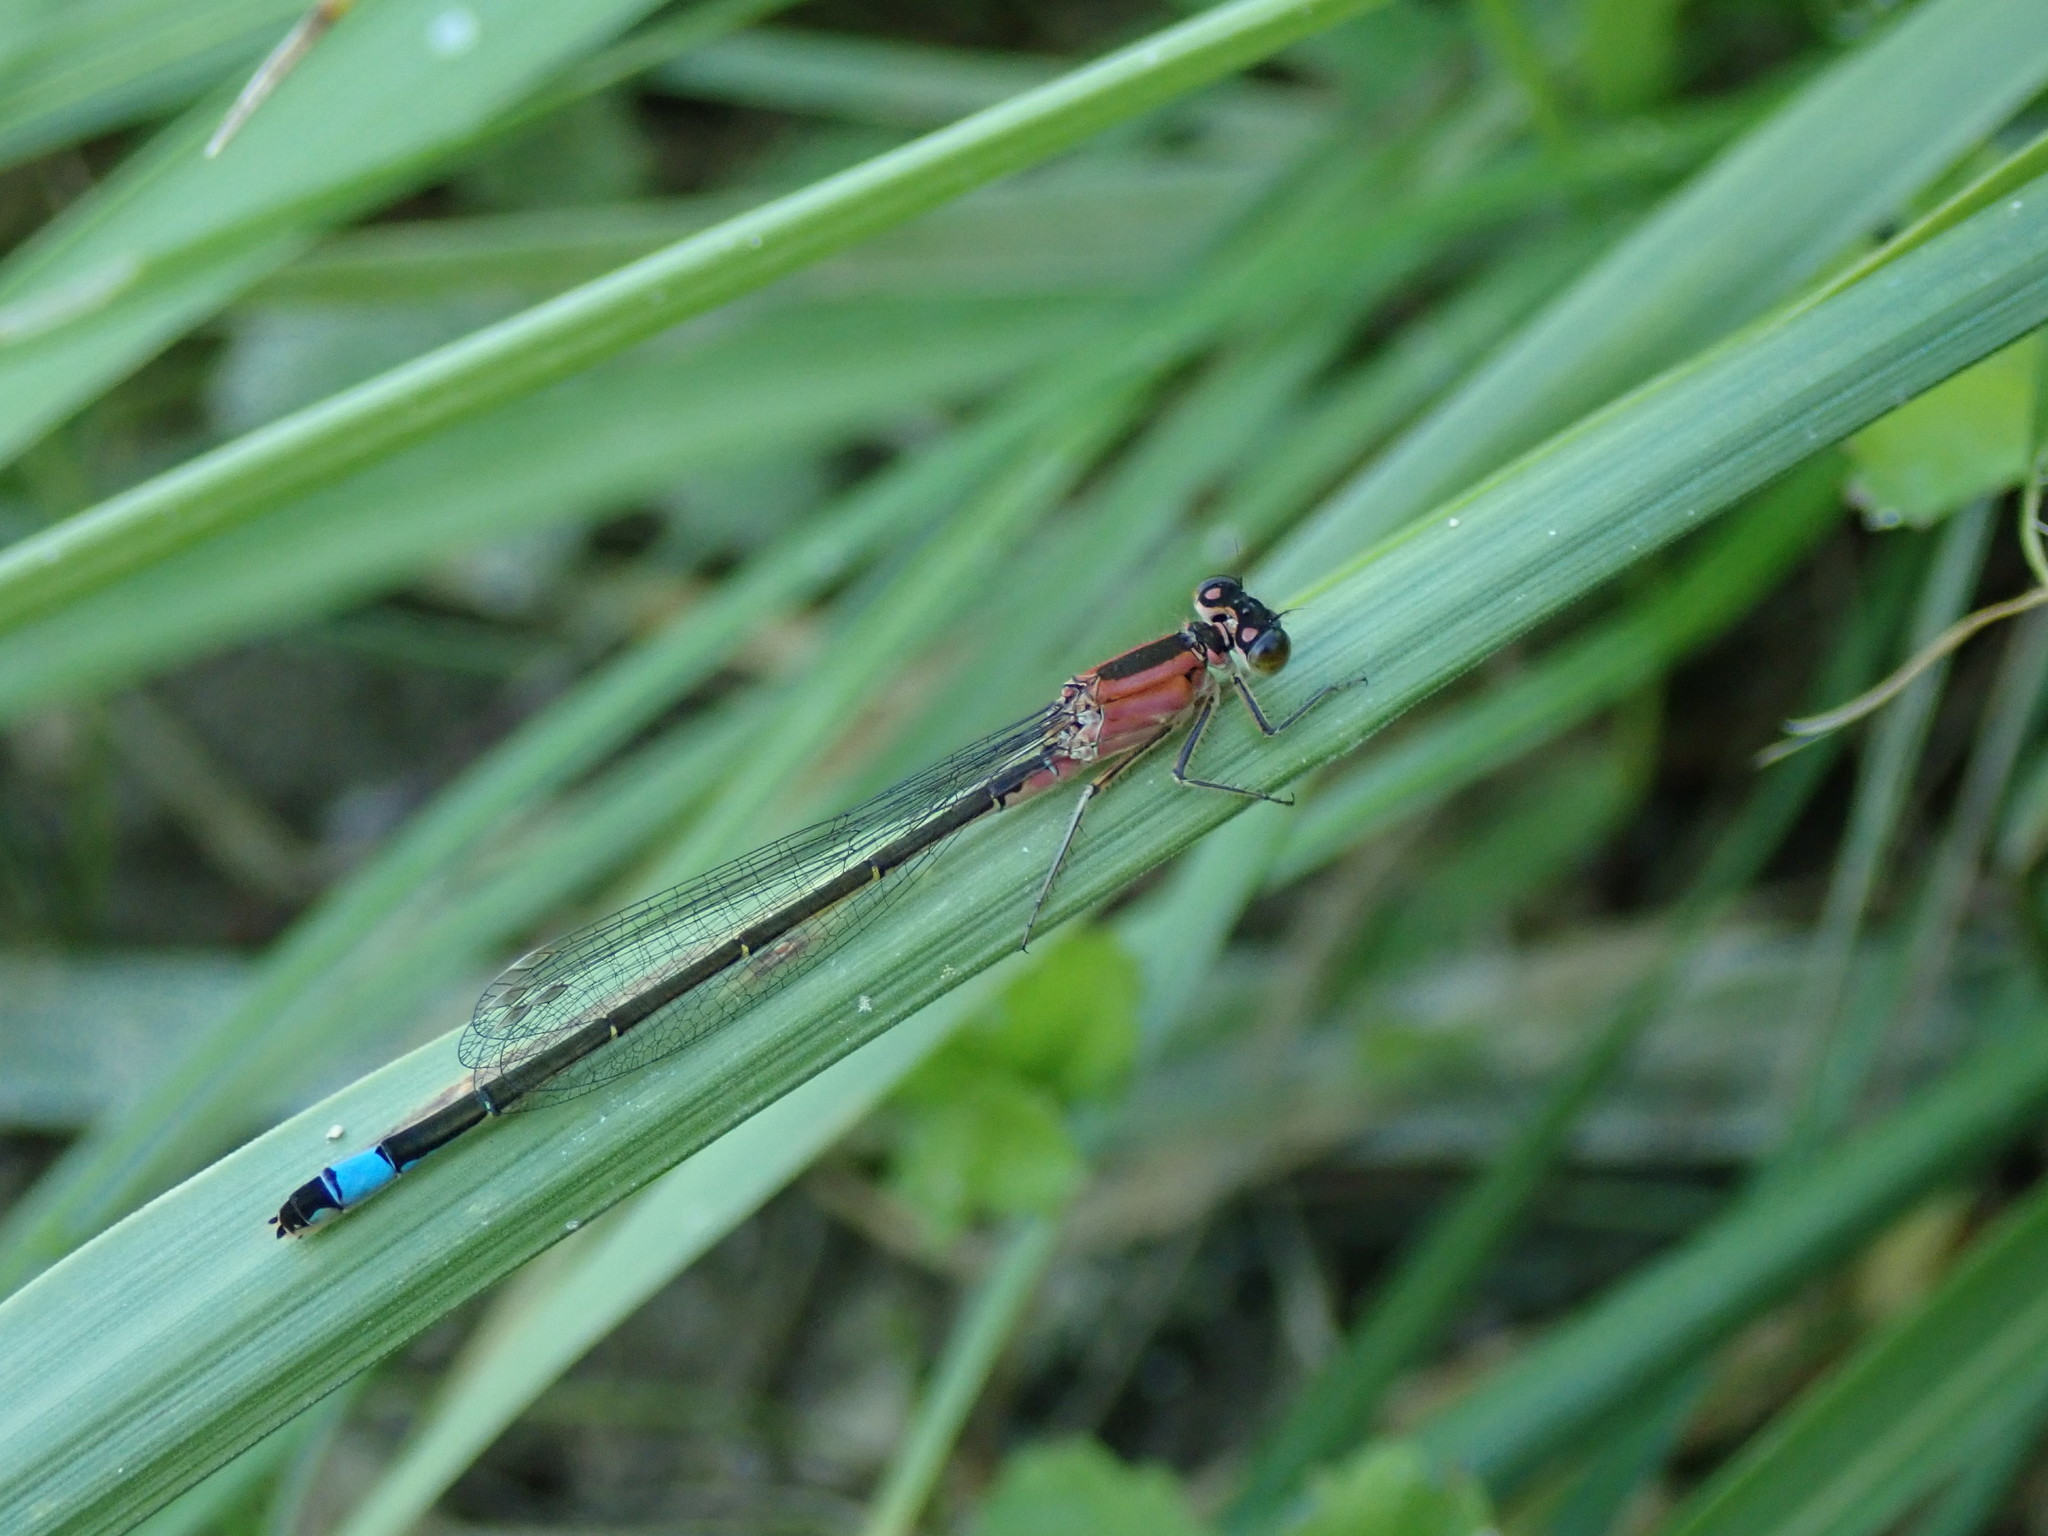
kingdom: Animalia
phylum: Arthropoda
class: Insecta
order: Odonata
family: Coenagrionidae
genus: Ischnura
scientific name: Ischnura elegans
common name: Blue-tailed damselfly
